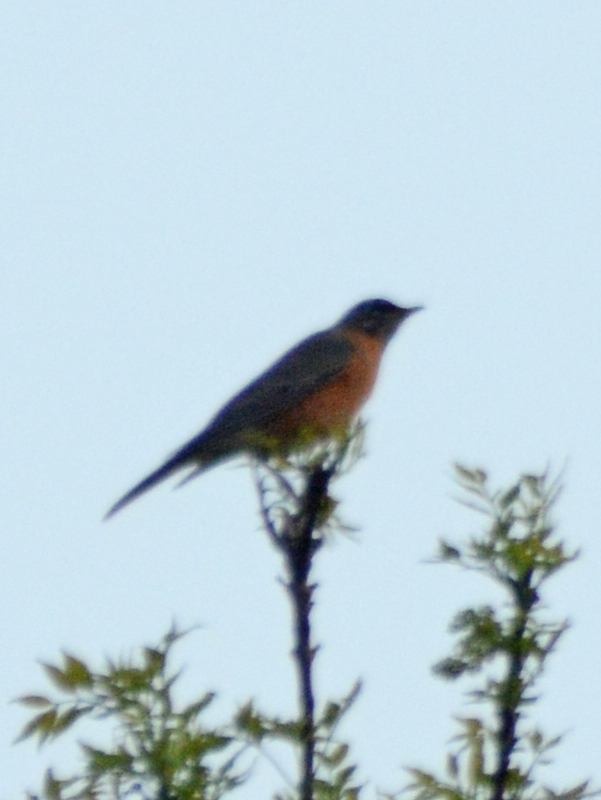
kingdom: Animalia
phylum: Chordata
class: Aves
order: Passeriformes
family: Turdidae
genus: Turdus
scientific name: Turdus migratorius
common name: American robin
